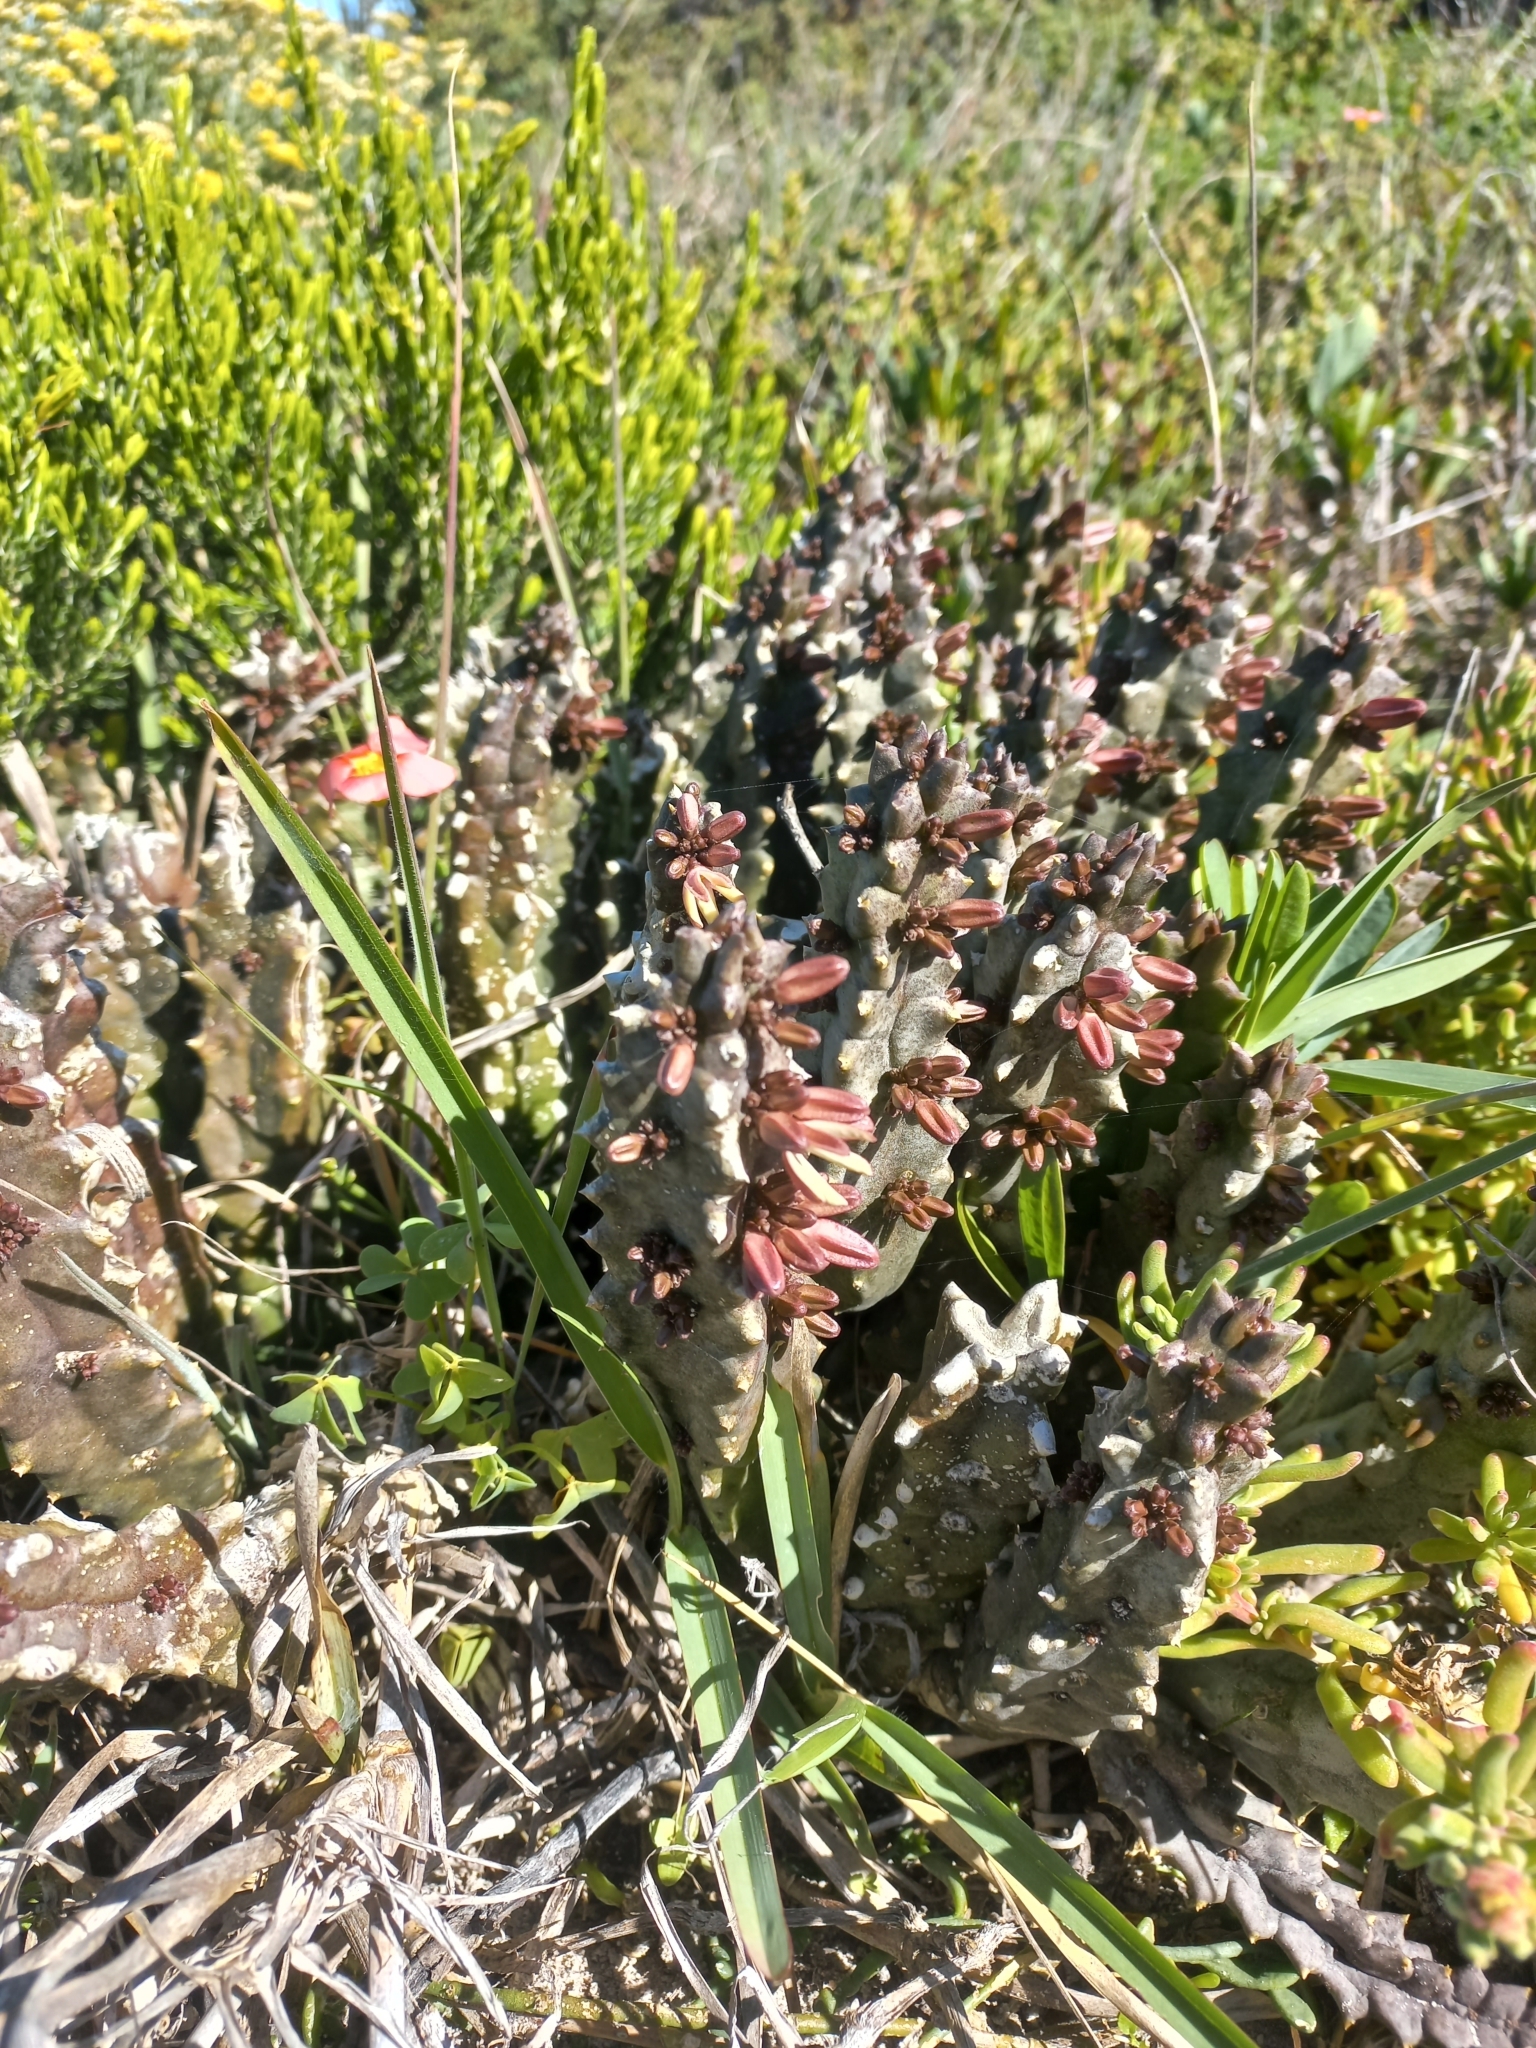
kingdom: Plantae
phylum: Tracheophyta
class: Magnoliopsida
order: Gentianales
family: Apocynaceae
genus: Ceropegia
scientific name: Ceropegia incarnata
